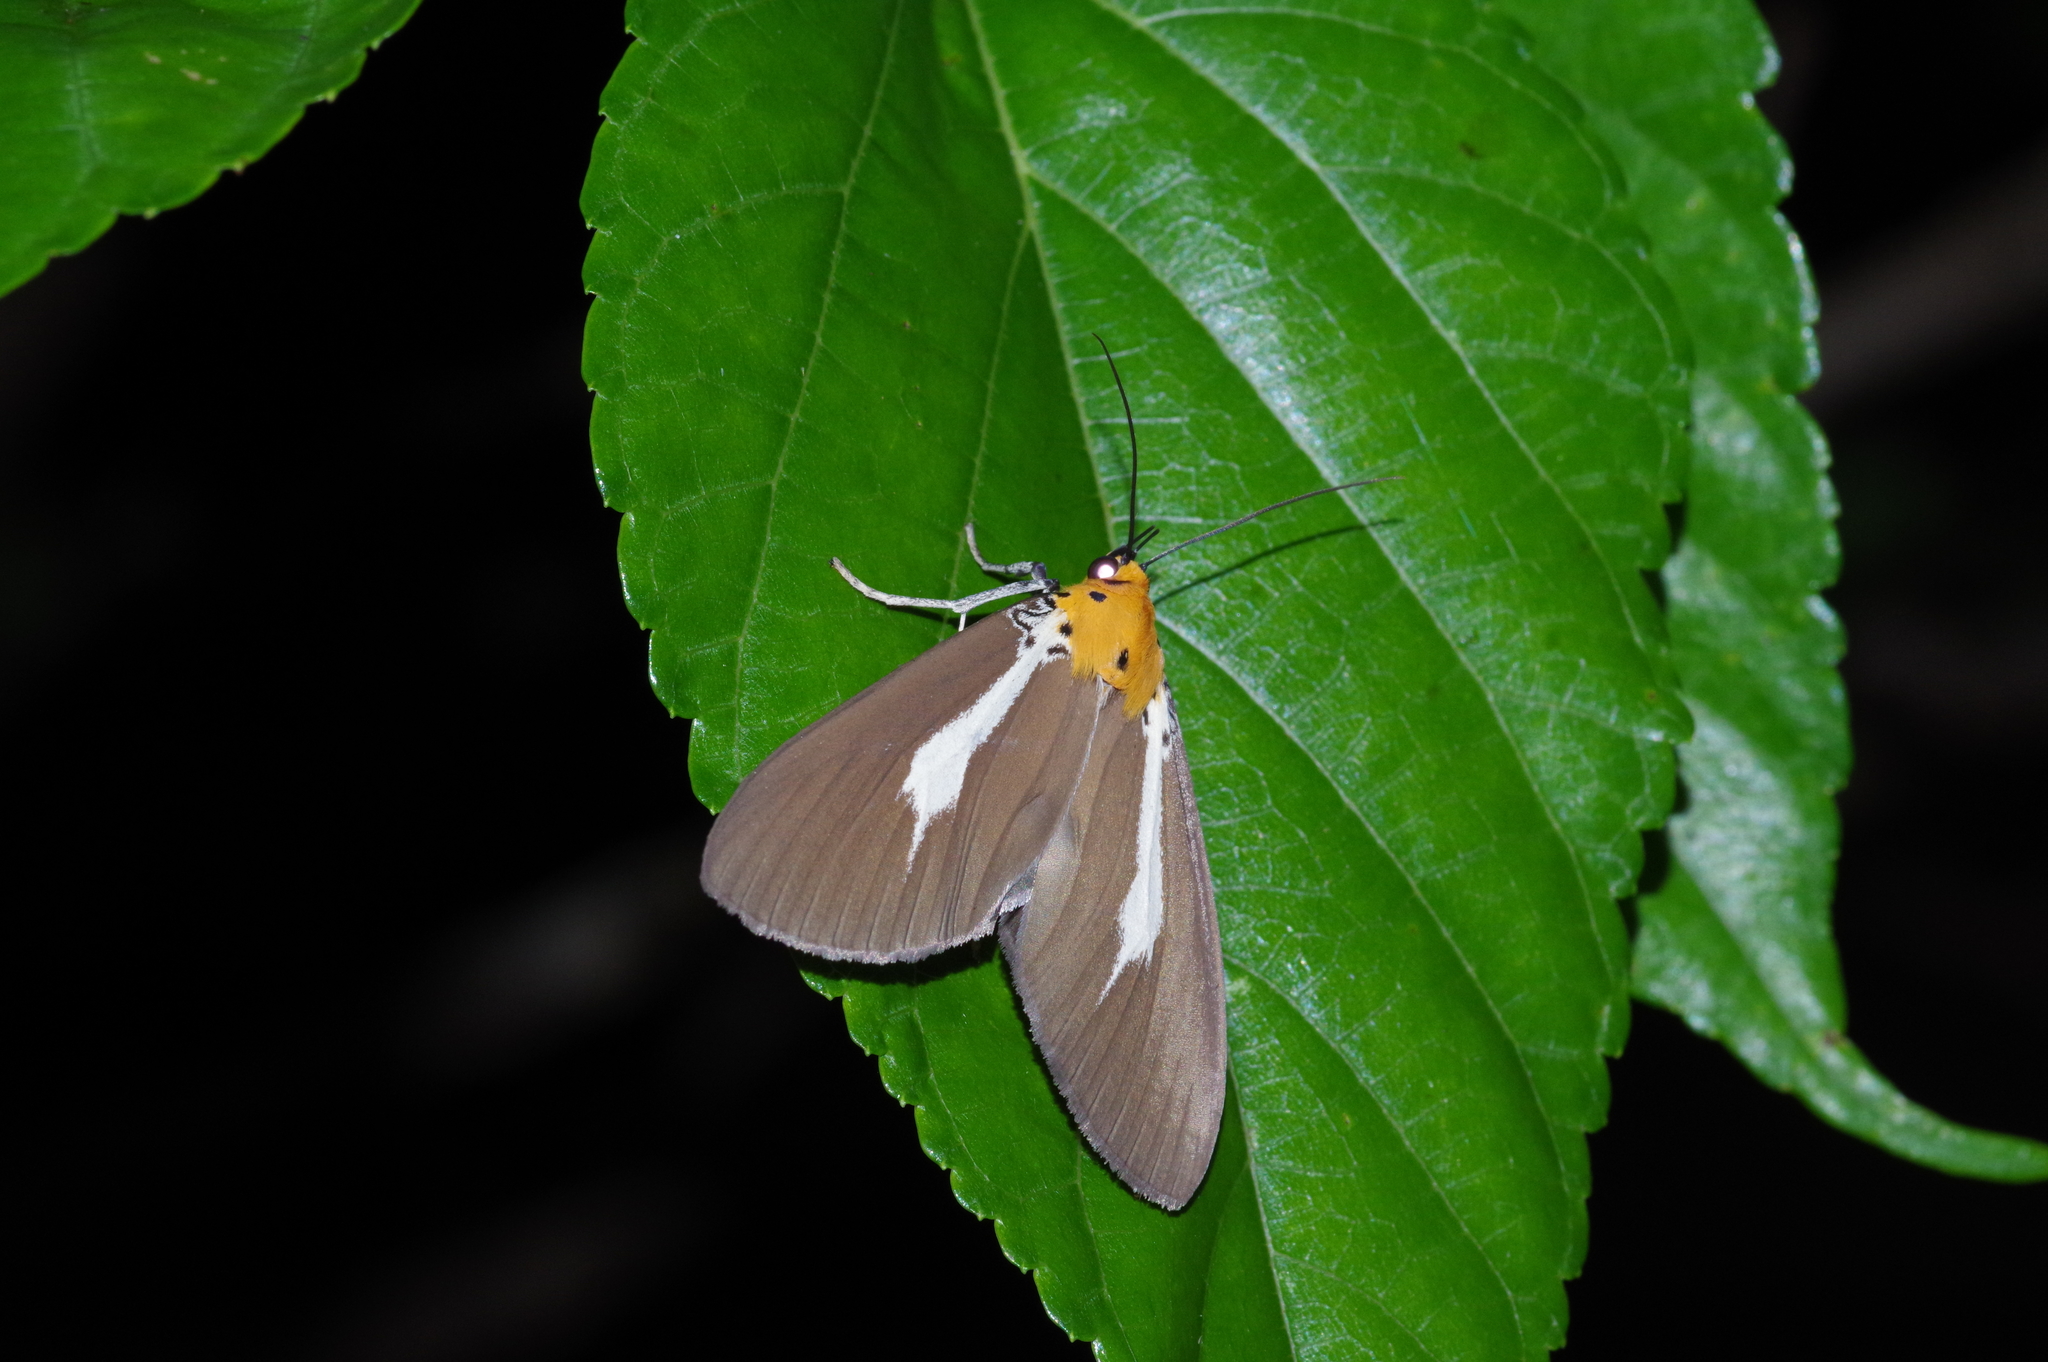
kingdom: Animalia
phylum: Arthropoda
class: Insecta
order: Lepidoptera
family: Erebidae
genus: Asota
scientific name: Asota heliconia
